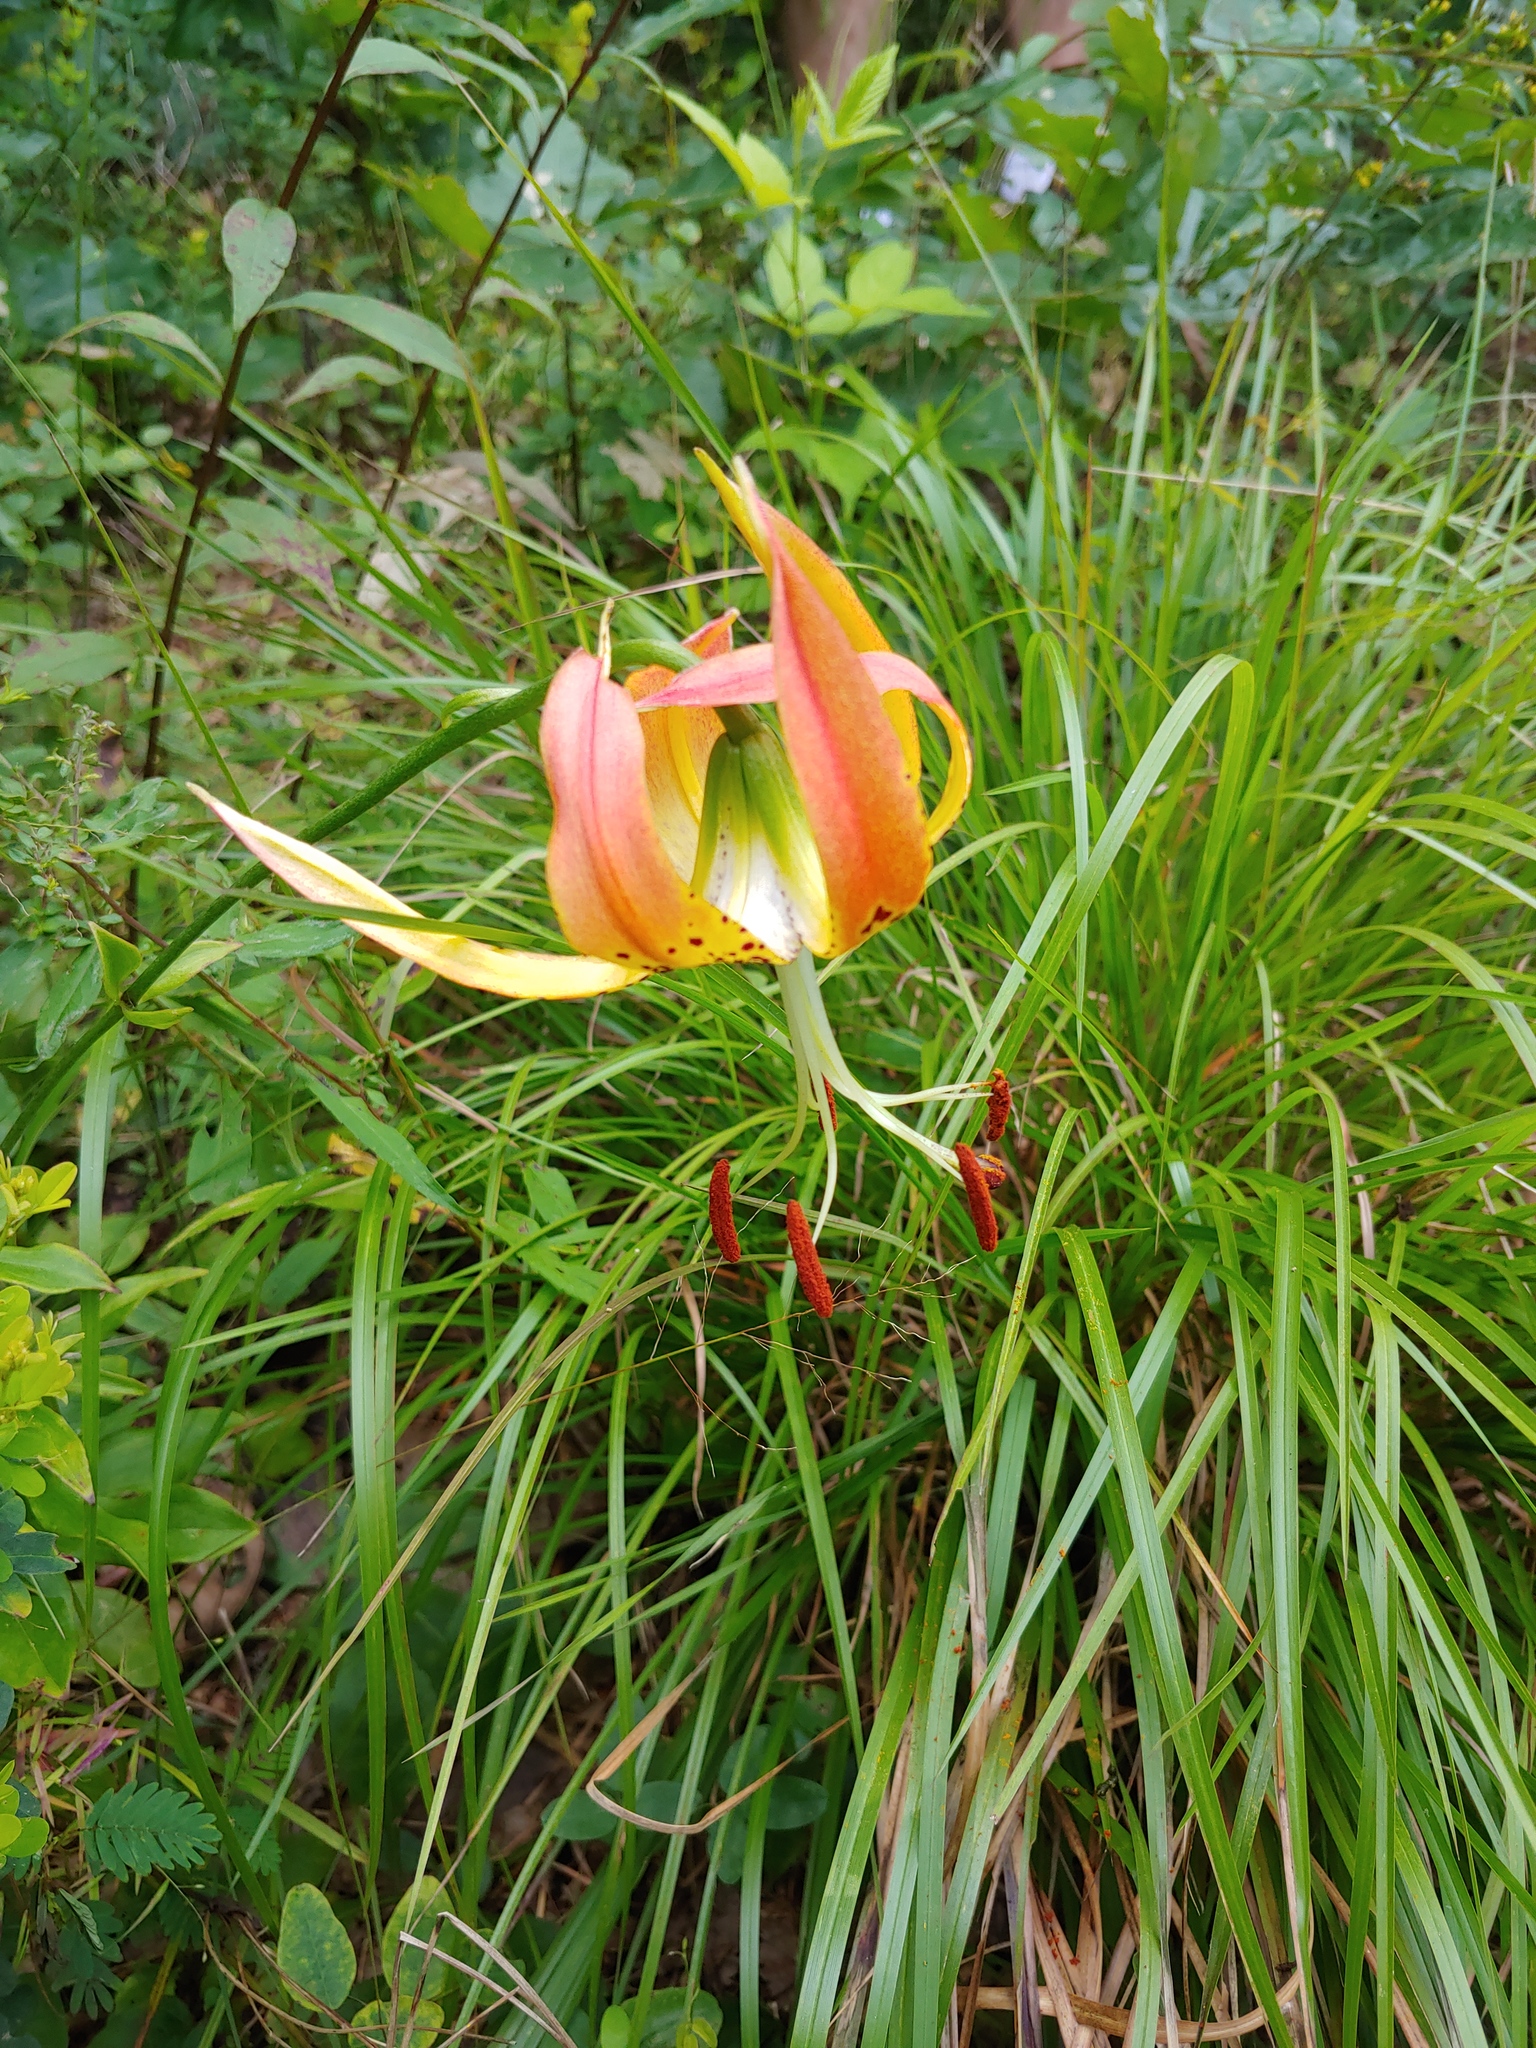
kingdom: Plantae
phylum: Tracheophyta
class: Liliopsida
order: Liliales
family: Liliaceae
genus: Lilium
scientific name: Lilium michauxii
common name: Carolina lily
